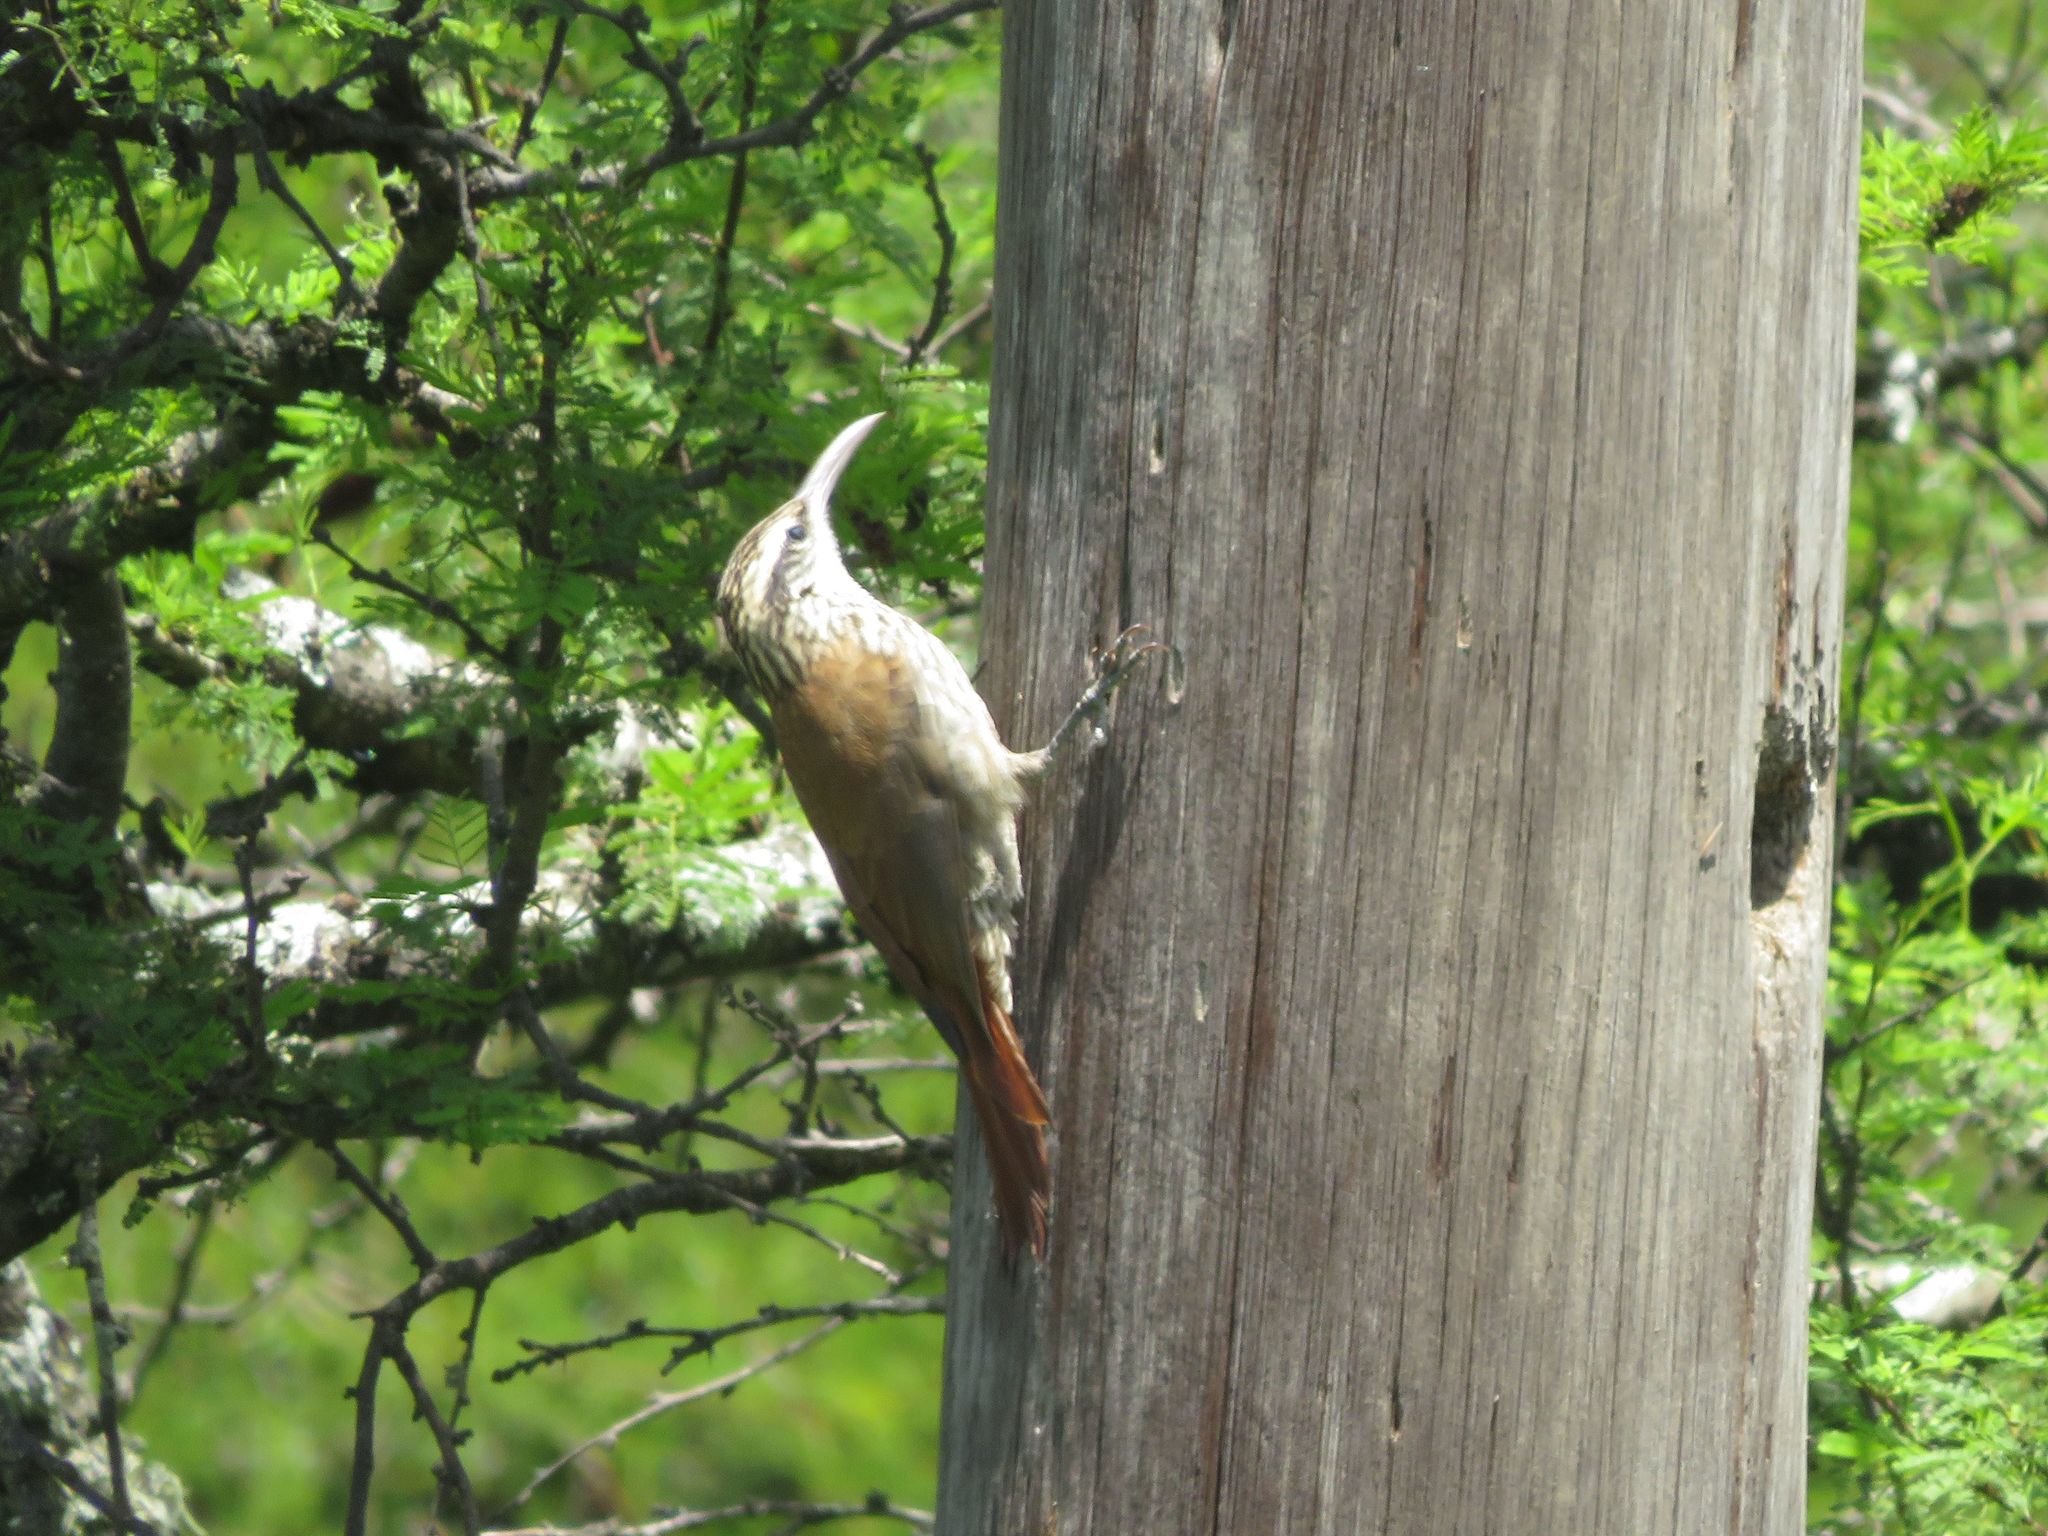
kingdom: Animalia
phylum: Chordata
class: Aves
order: Passeriformes
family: Furnariidae
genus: Lepidocolaptes
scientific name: Lepidocolaptes angustirostris
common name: Narrow-billed woodcreeper
